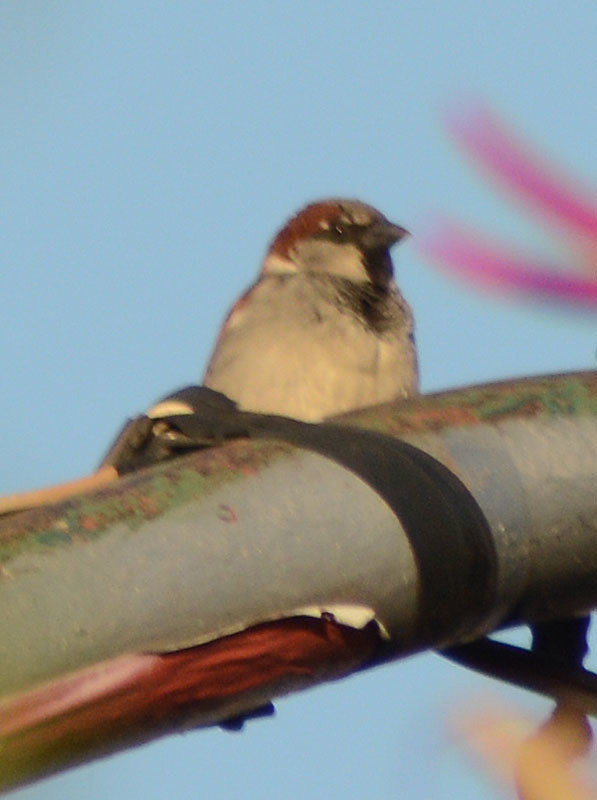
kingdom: Animalia
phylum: Chordata
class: Aves
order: Passeriformes
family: Passeridae
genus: Passer
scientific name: Passer domesticus
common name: House sparrow
